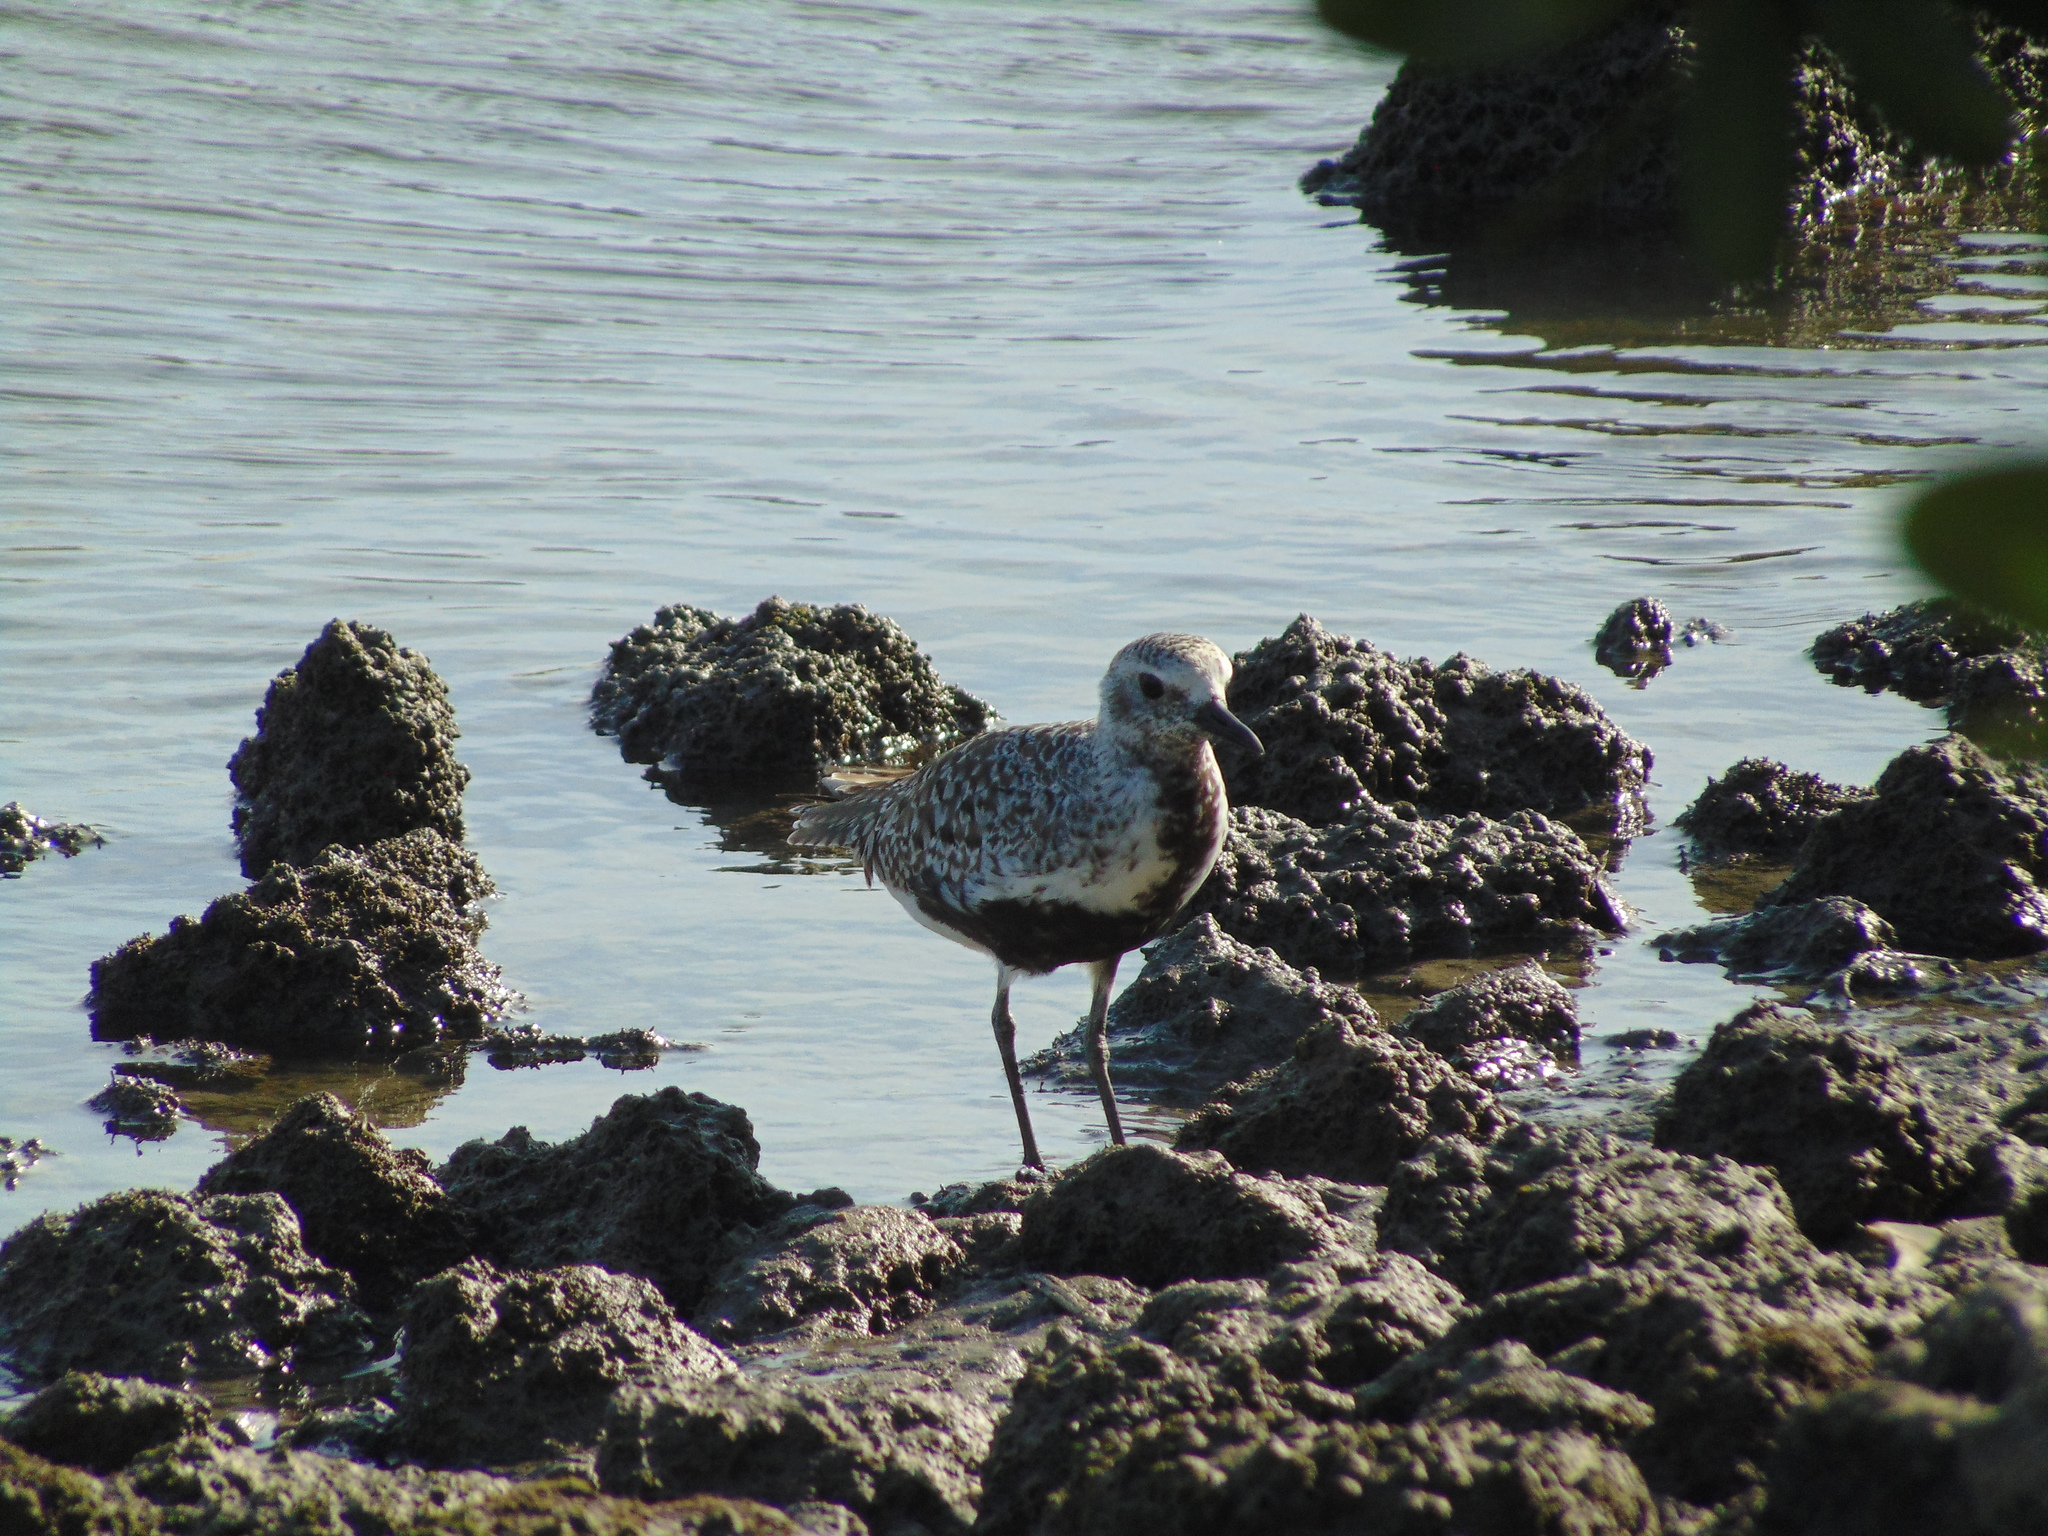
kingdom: Animalia
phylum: Chordata
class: Aves
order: Charadriiformes
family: Charadriidae
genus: Pluvialis
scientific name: Pluvialis squatarola
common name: Grey plover
